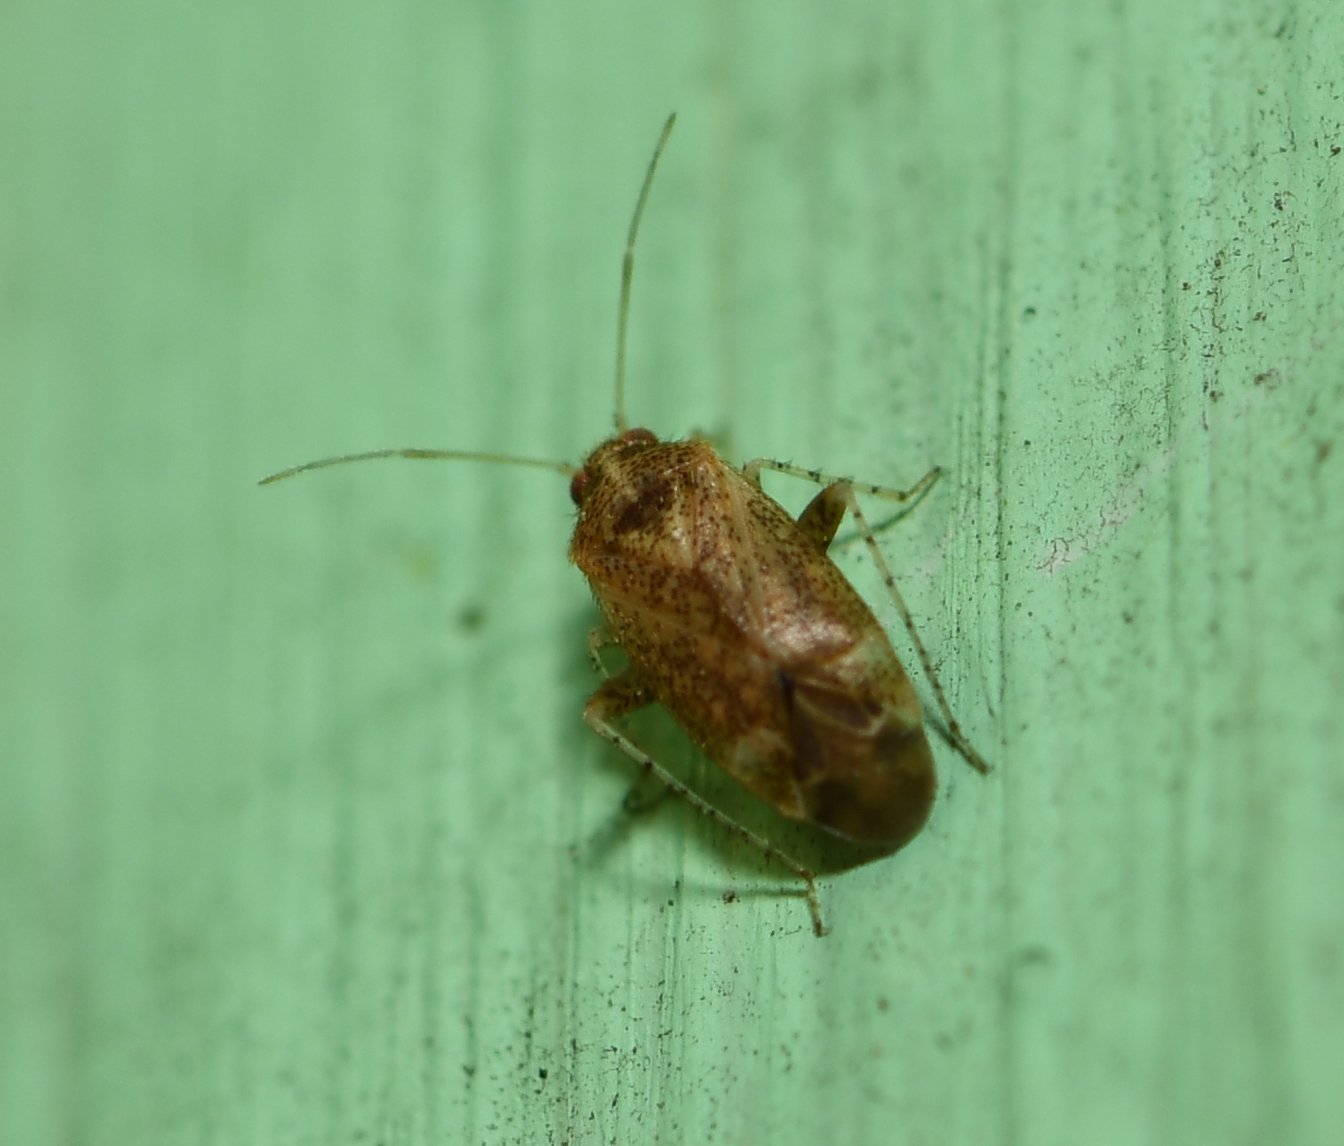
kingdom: Animalia
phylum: Arthropoda
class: Insecta
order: Hemiptera
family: Miridae
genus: Hamatophylus
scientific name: Hamatophylus guttulosus
